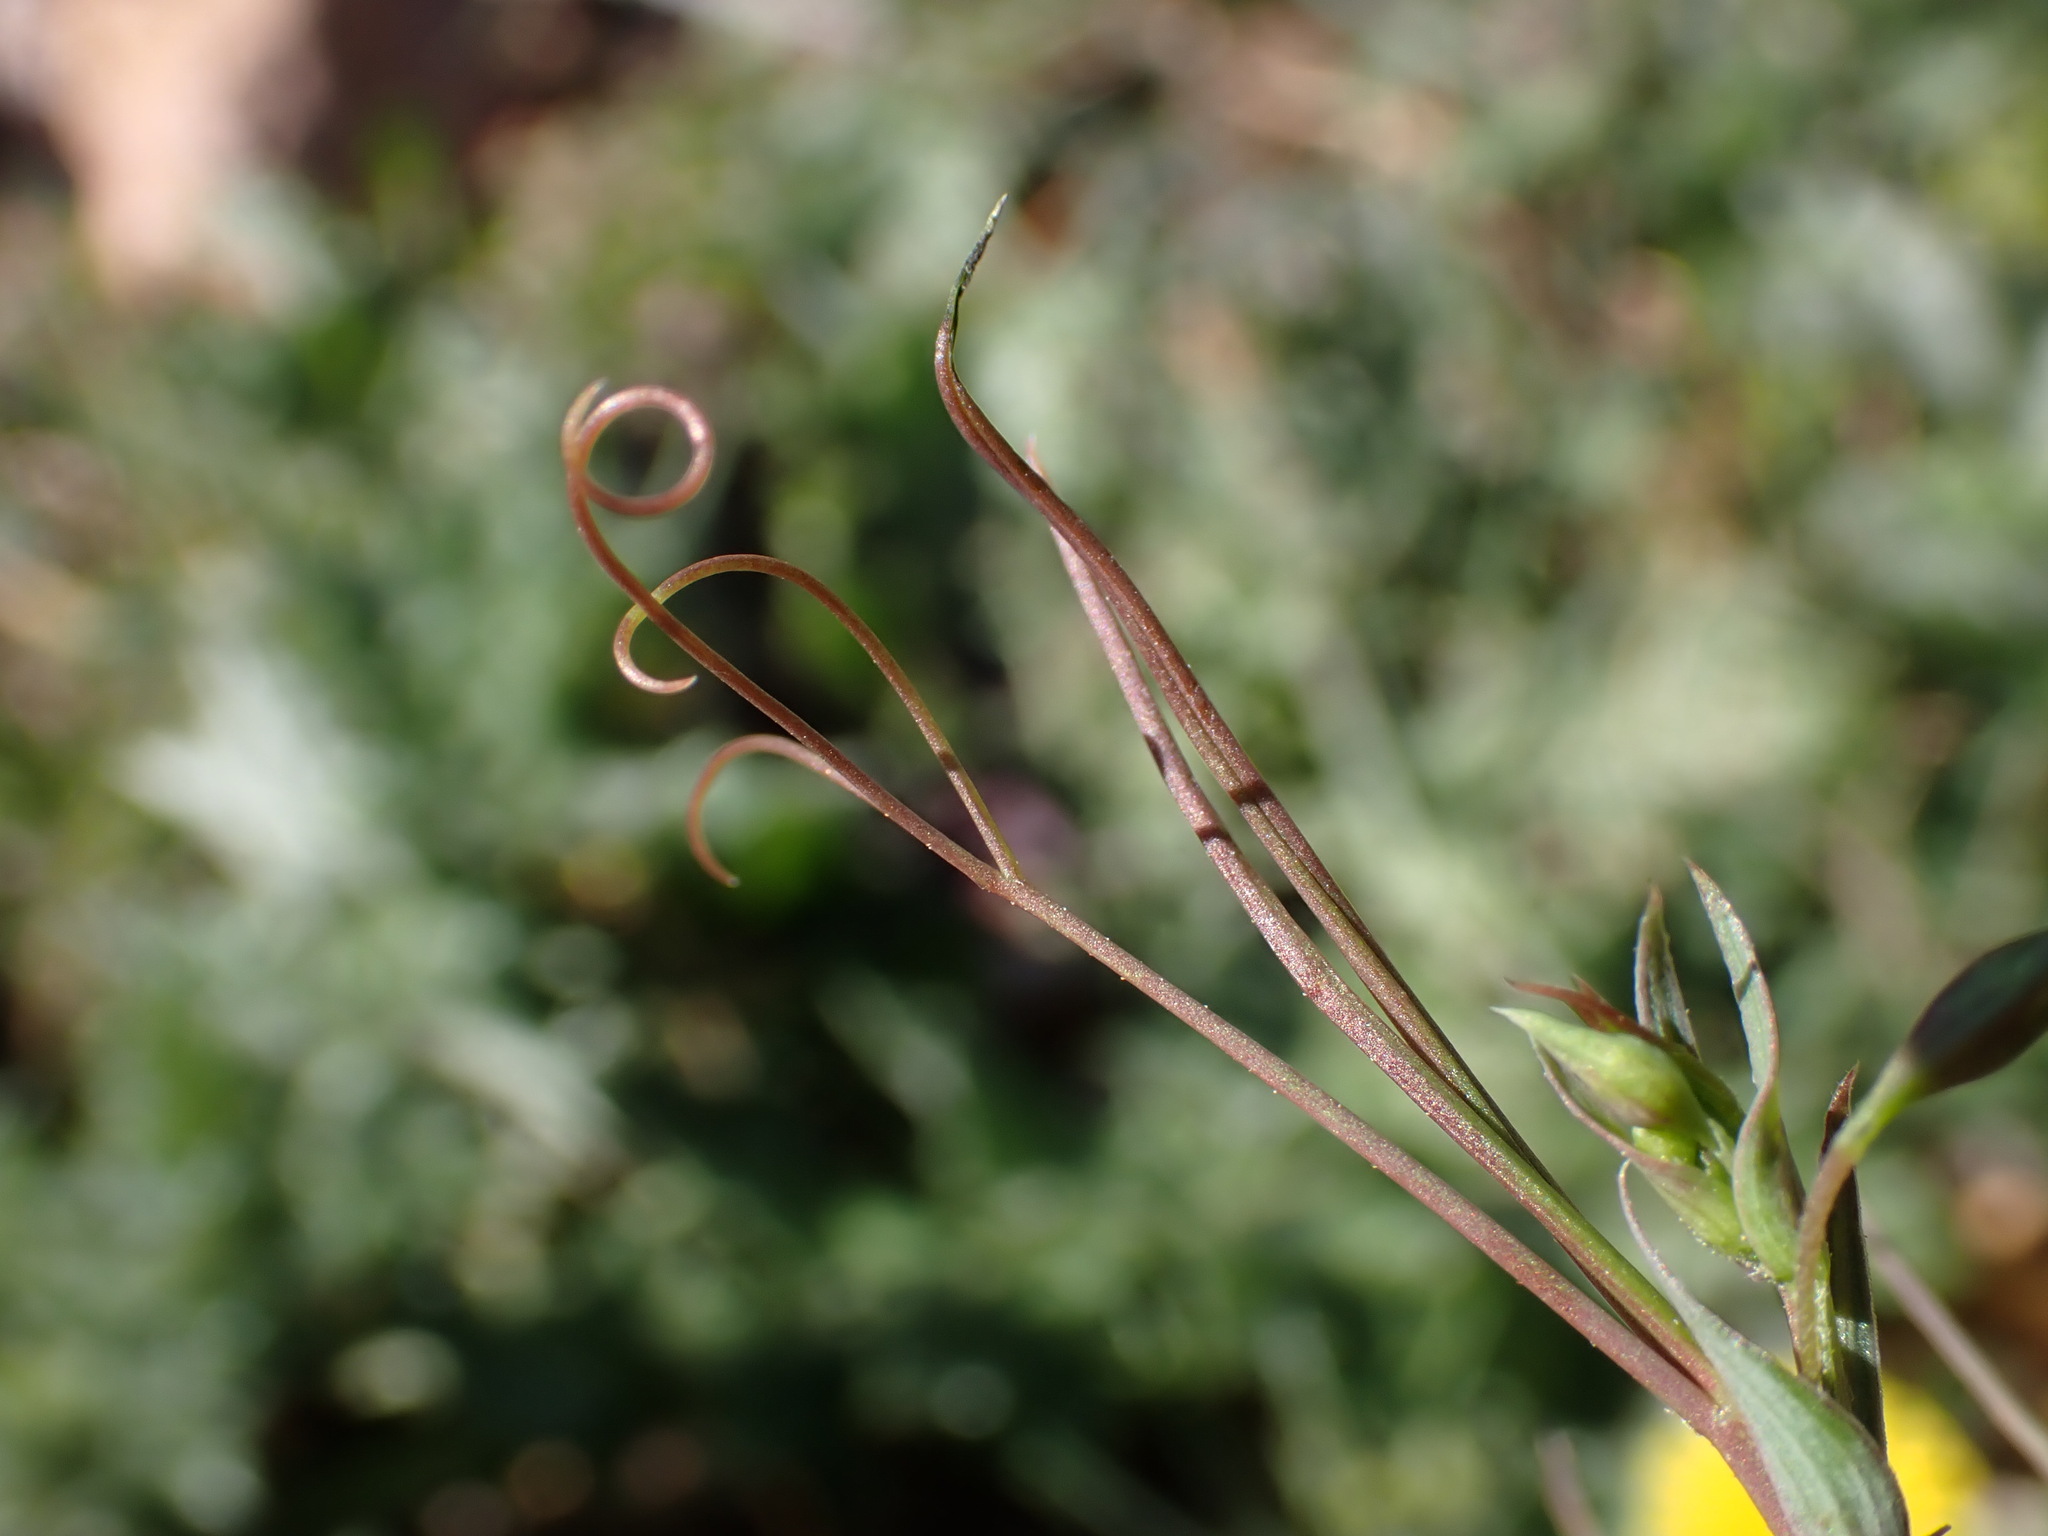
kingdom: Plantae
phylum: Tracheophyta
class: Magnoliopsida
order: Fabales
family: Fabaceae
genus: Lathyrus
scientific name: Lathyrus setifolius
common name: Brown vetchling
